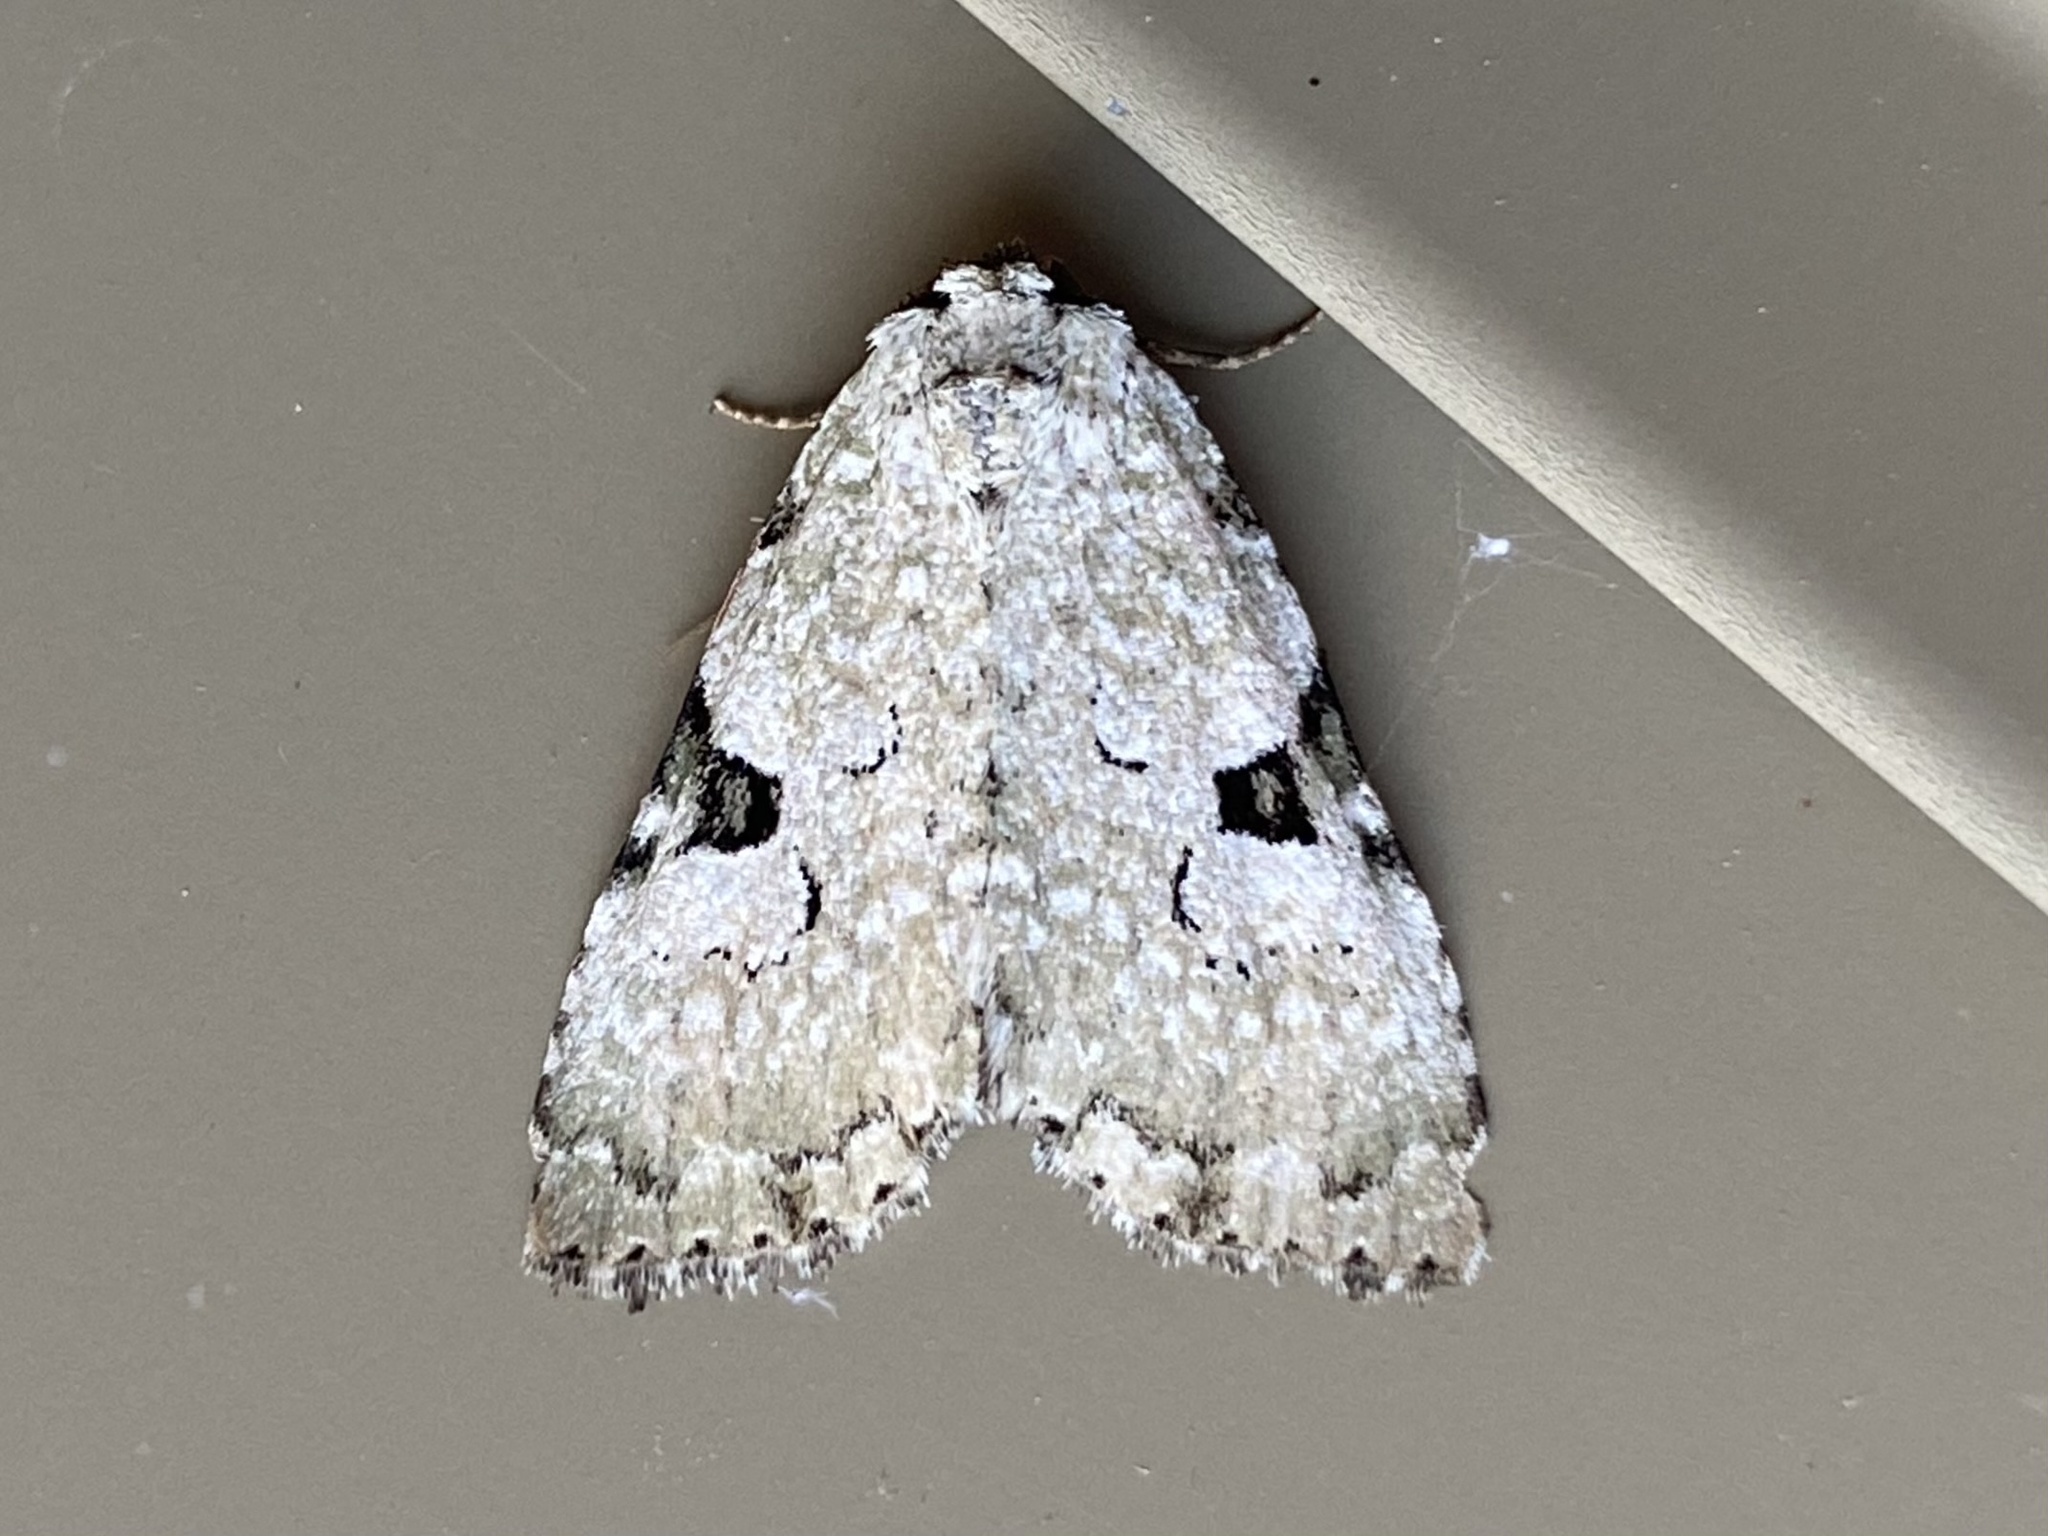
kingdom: Animalia
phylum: Arthropoda
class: Insecta
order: Lepidoptera
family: Noctuidae
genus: Leuconycta
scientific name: Leuconycta diphteroides
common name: Green leuconycta moth
